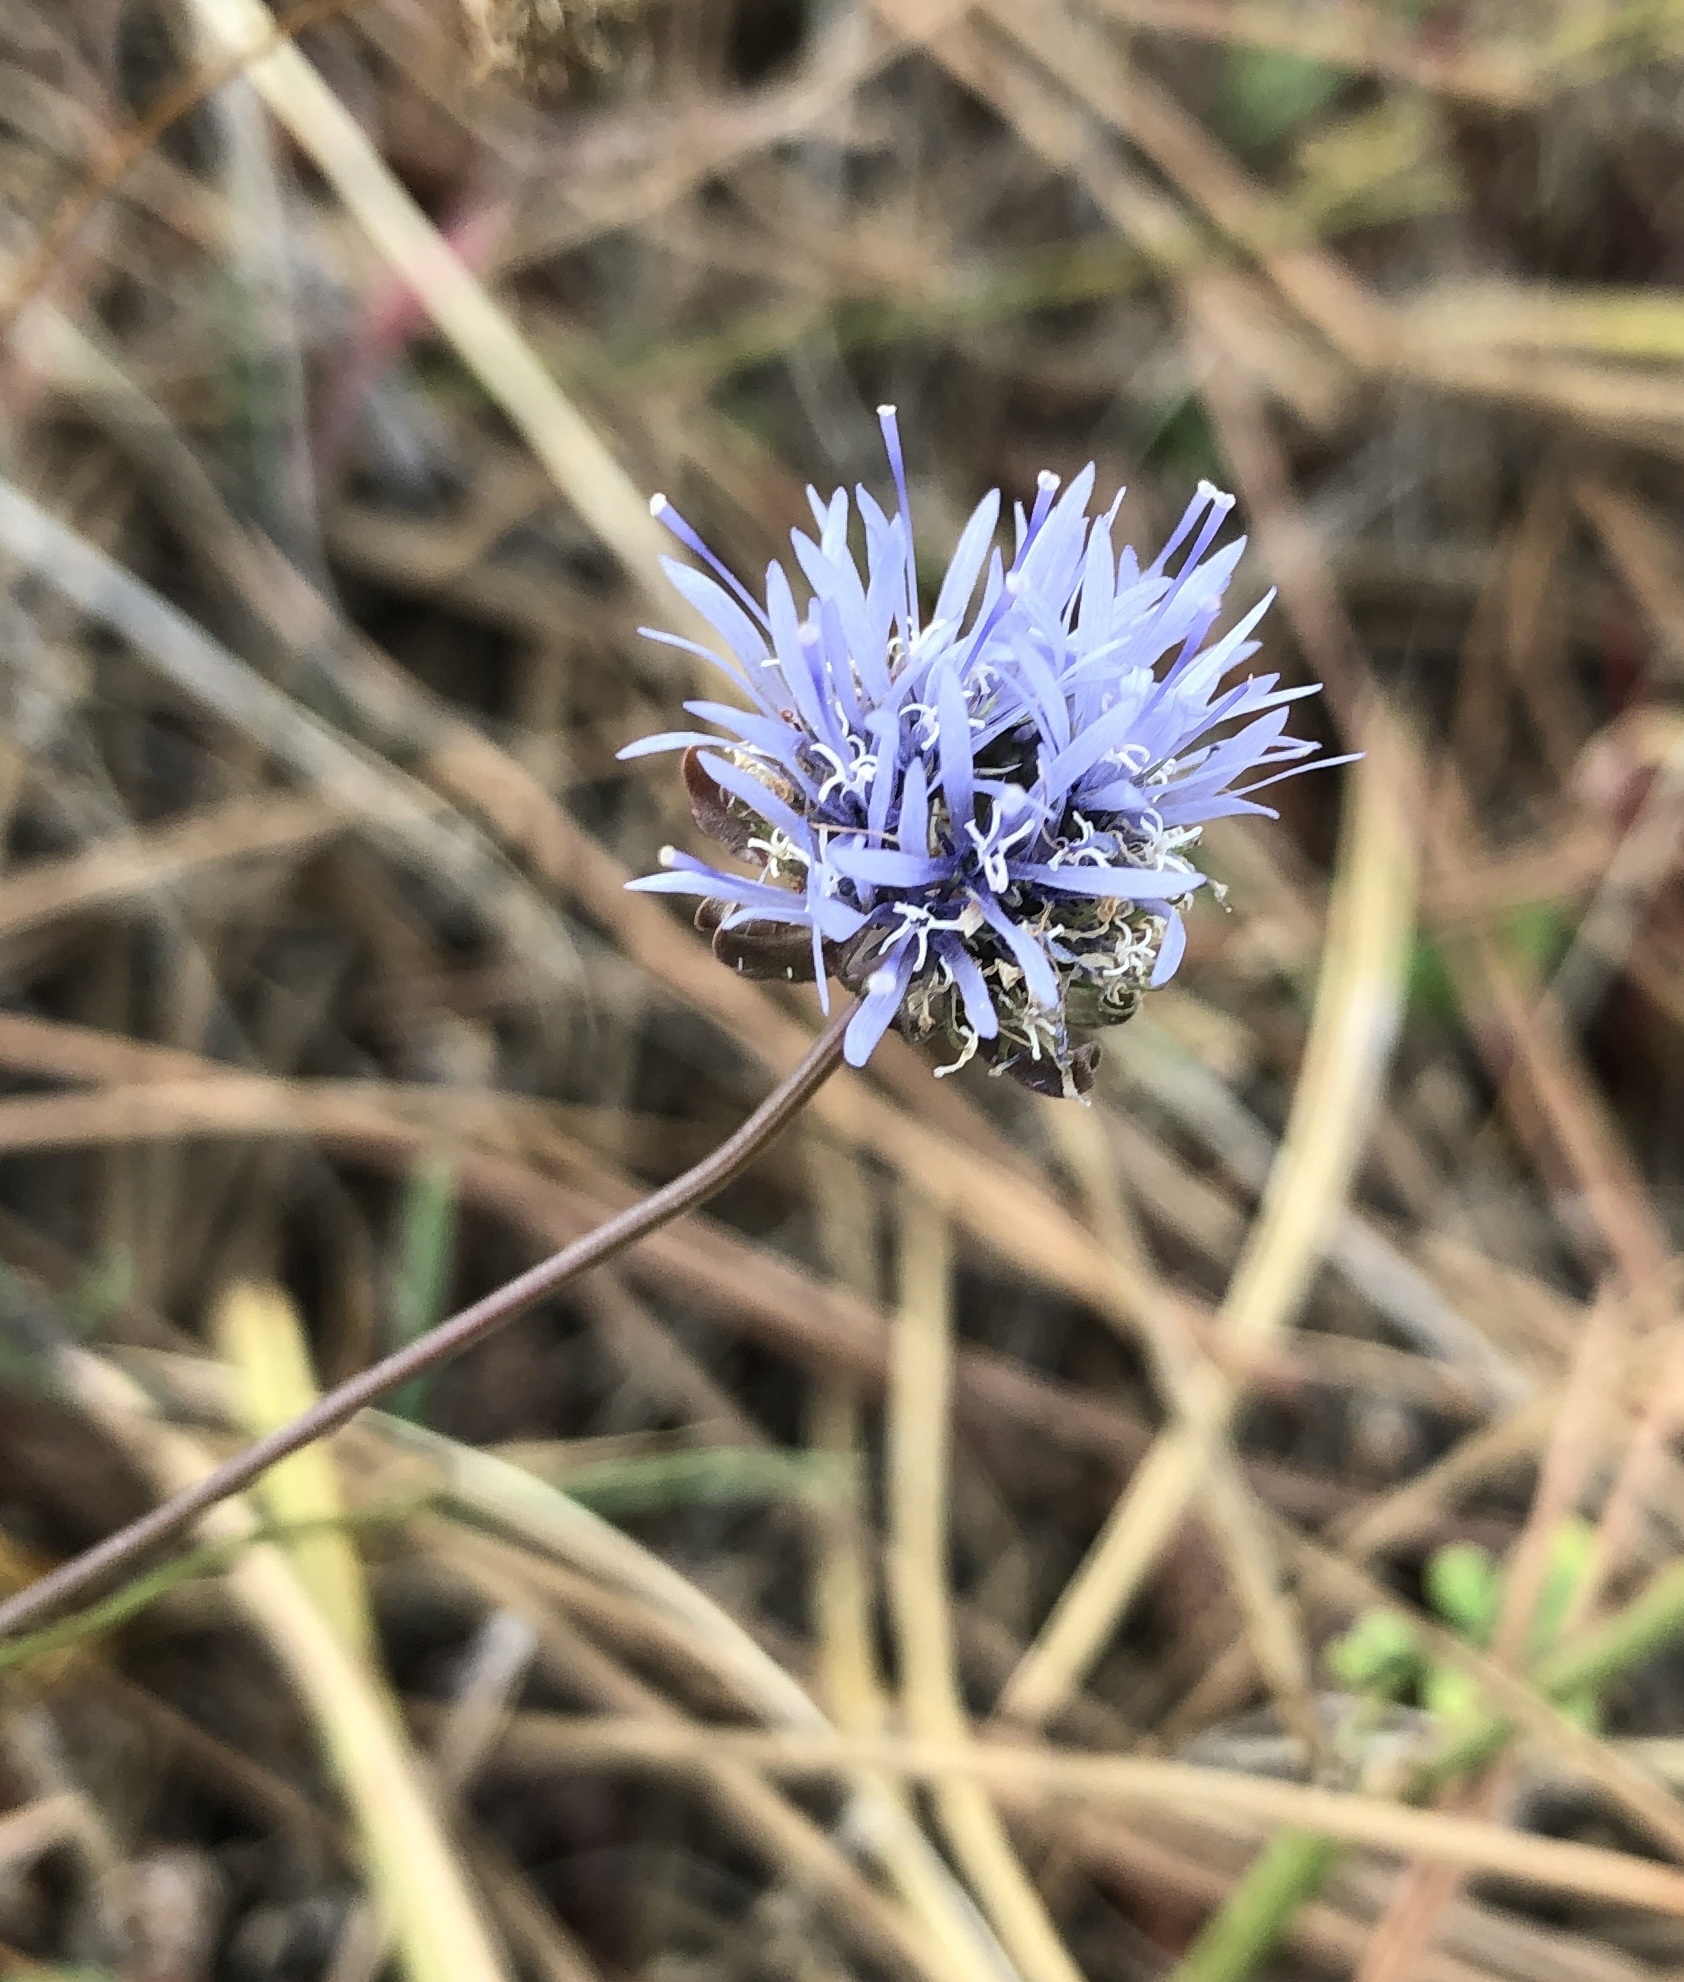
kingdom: Plantae
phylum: Tracheophyta
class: Magnoliopsida
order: Asterales
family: Campanulaceae
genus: Jasione
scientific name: Jasione montana
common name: Sheep's-bit
